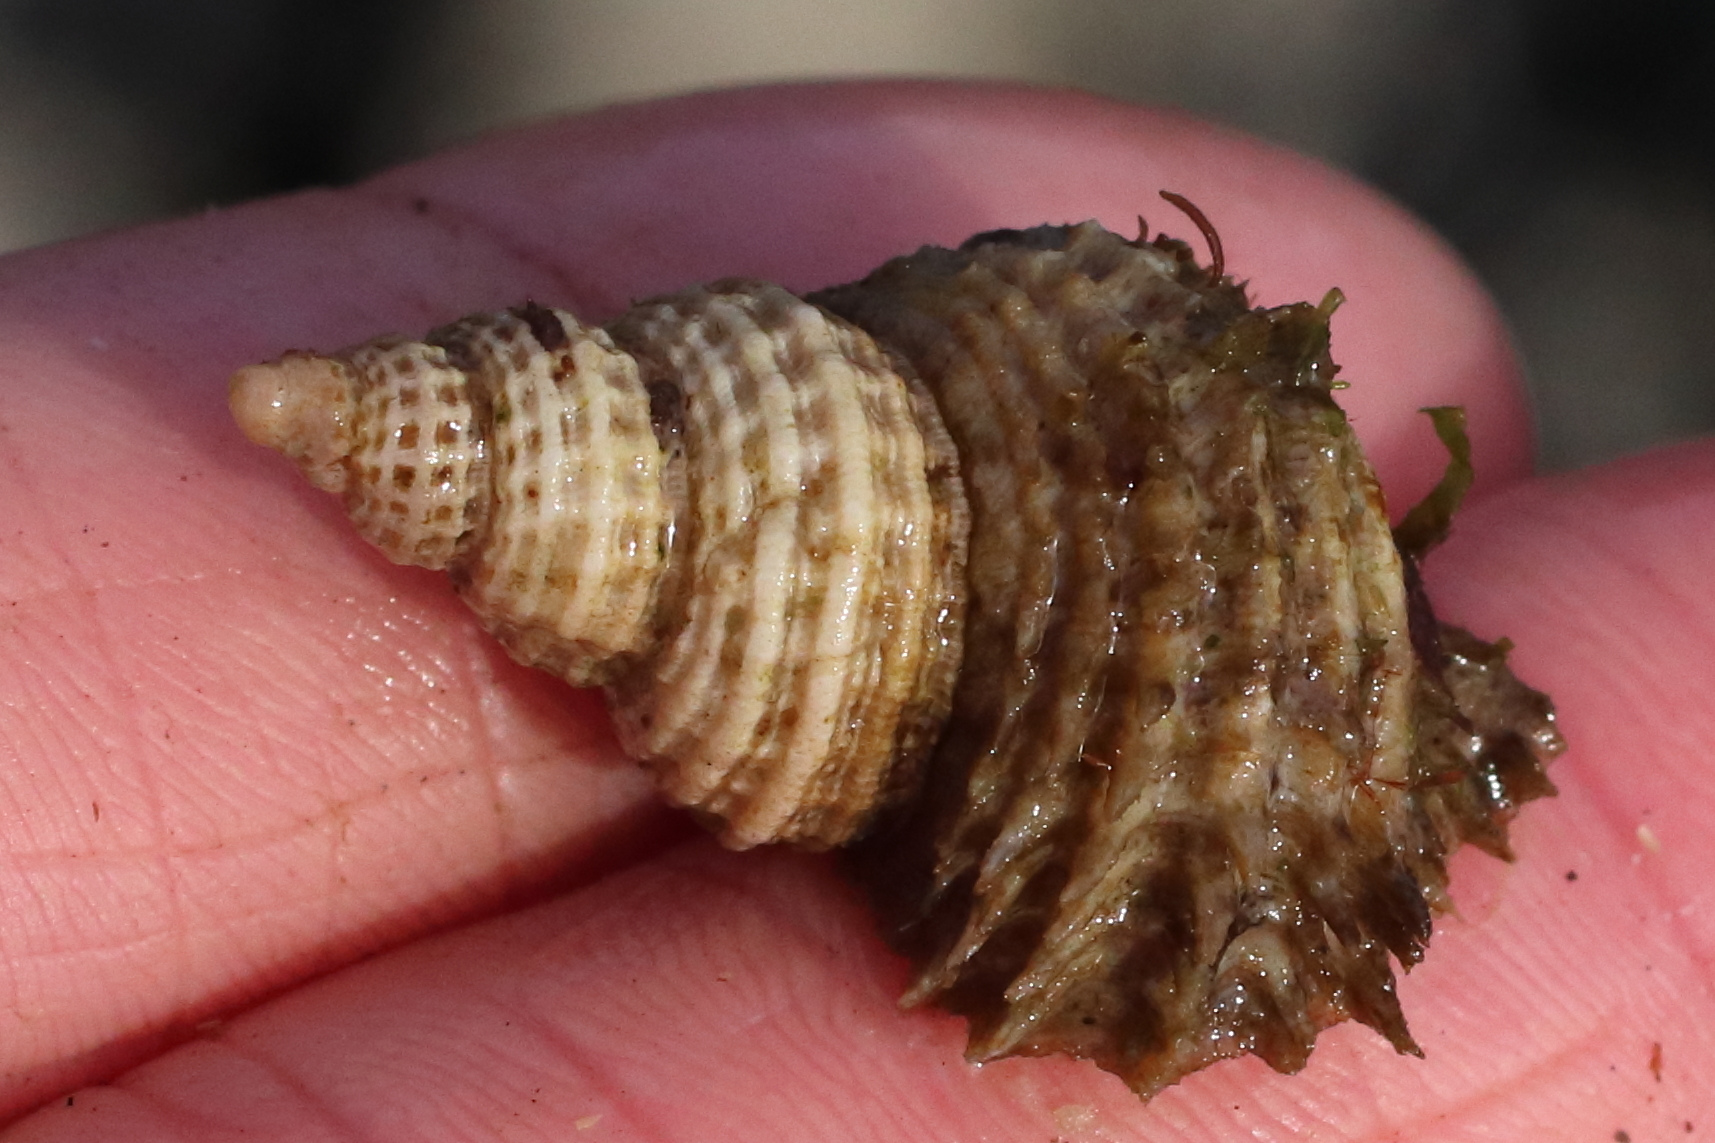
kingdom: Animalia
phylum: Mollusca
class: Gastropoda
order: Littorinimorpha
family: Capulidae
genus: Trichotropis
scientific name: Trichotropis cancellata
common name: Cancellate hairysnail
